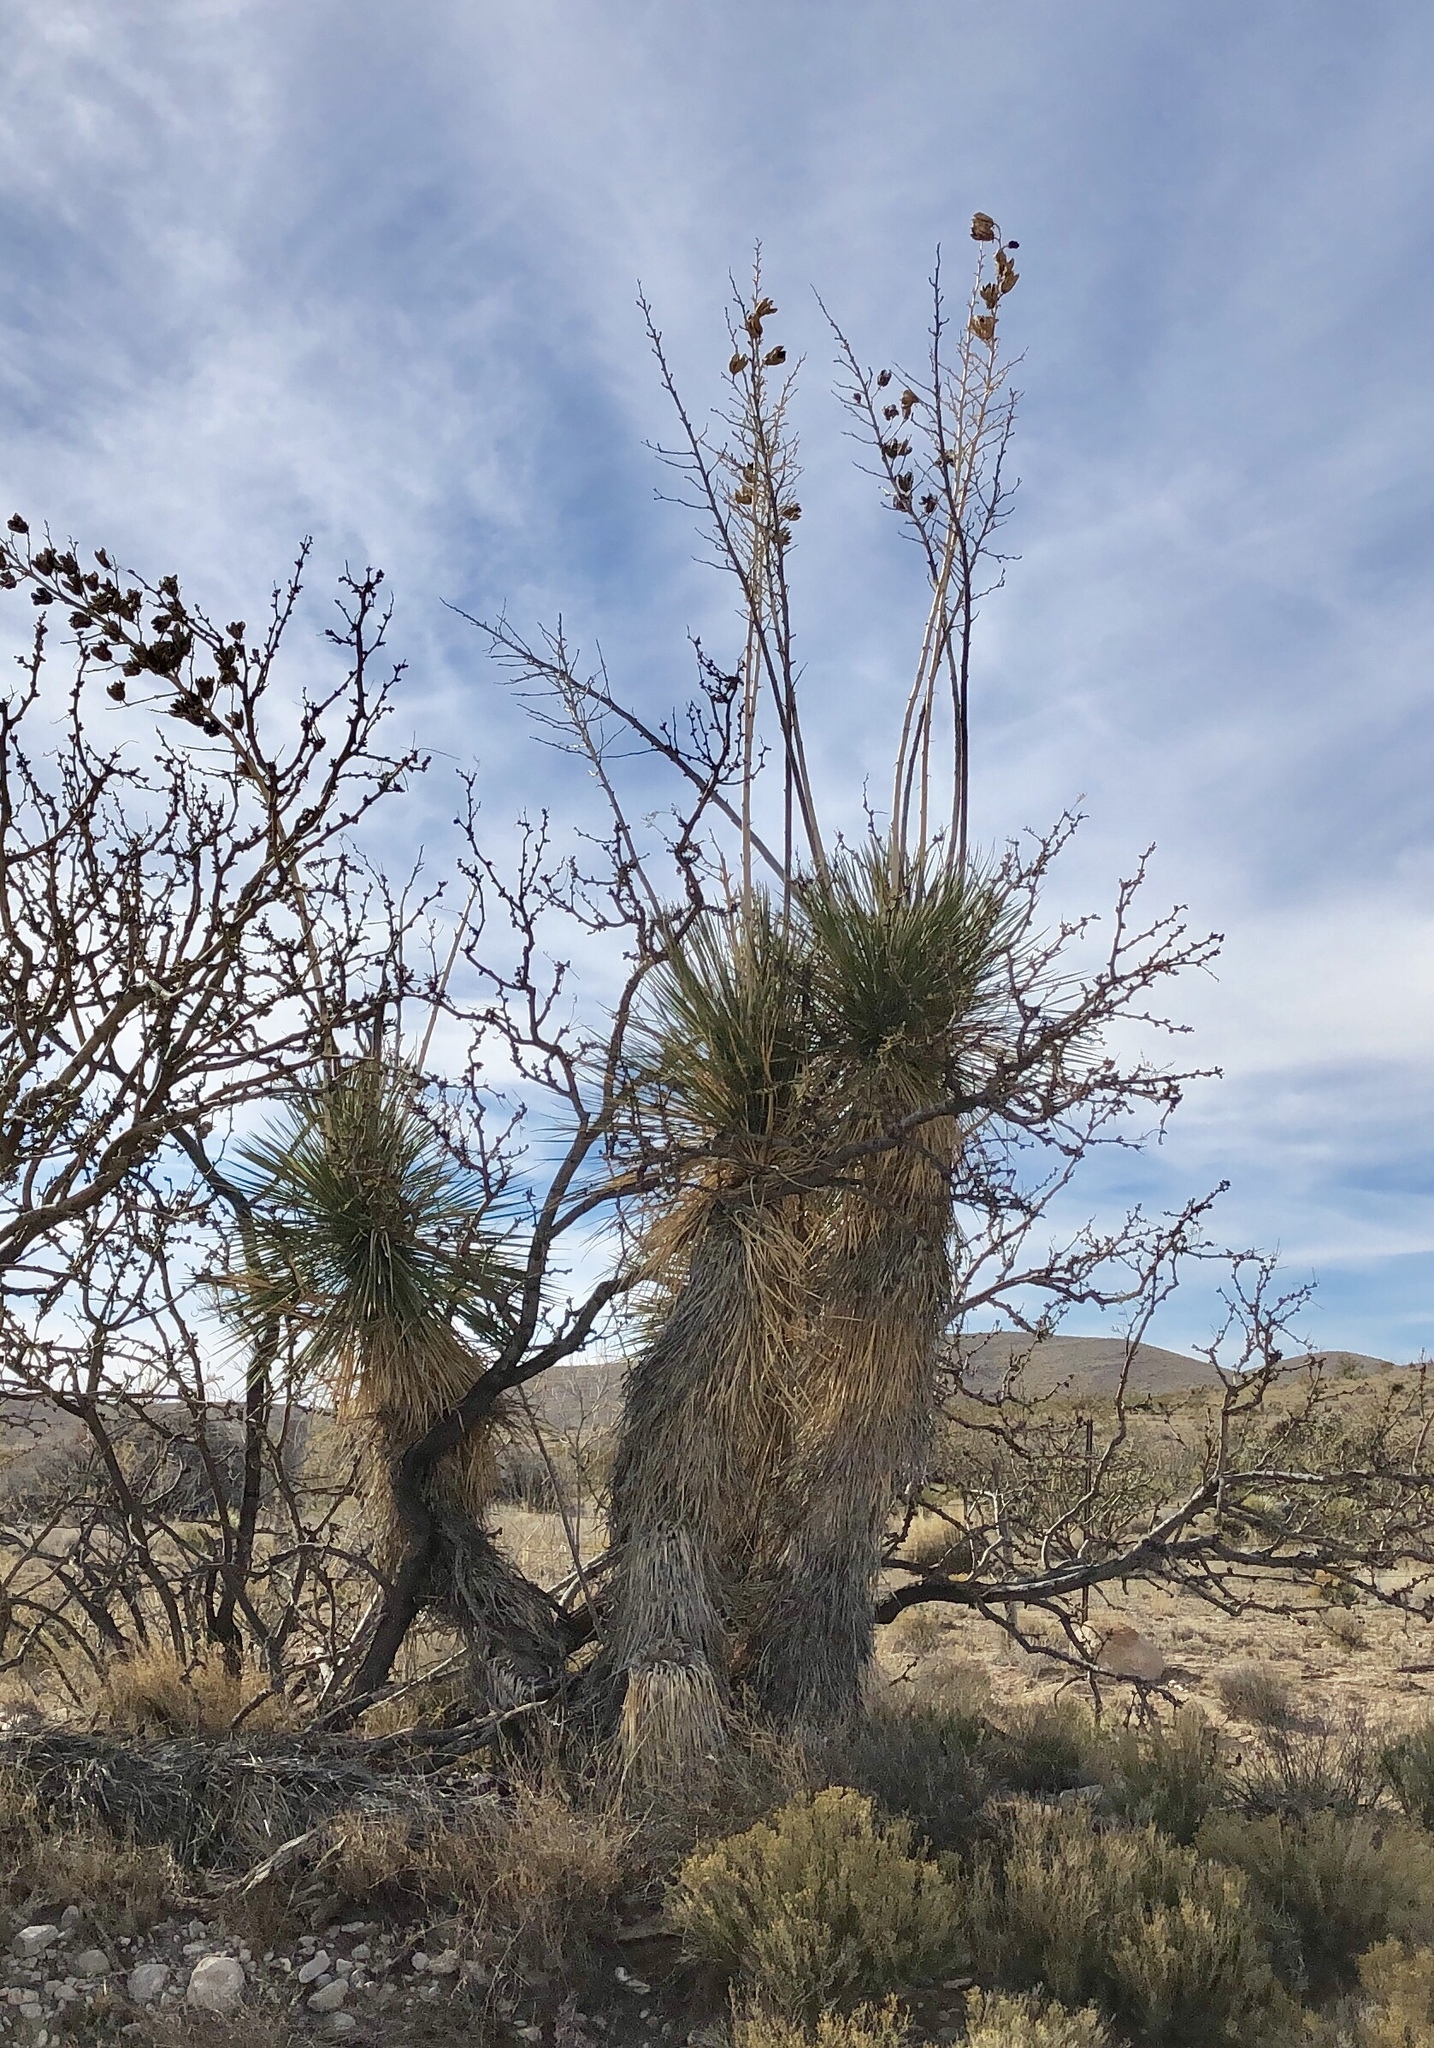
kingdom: Plantae
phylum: Tracheophyta
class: Liliopsida
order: Asparagales
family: Asparagaceae
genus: Yucca
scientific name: Yucca elata
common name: Palmella
